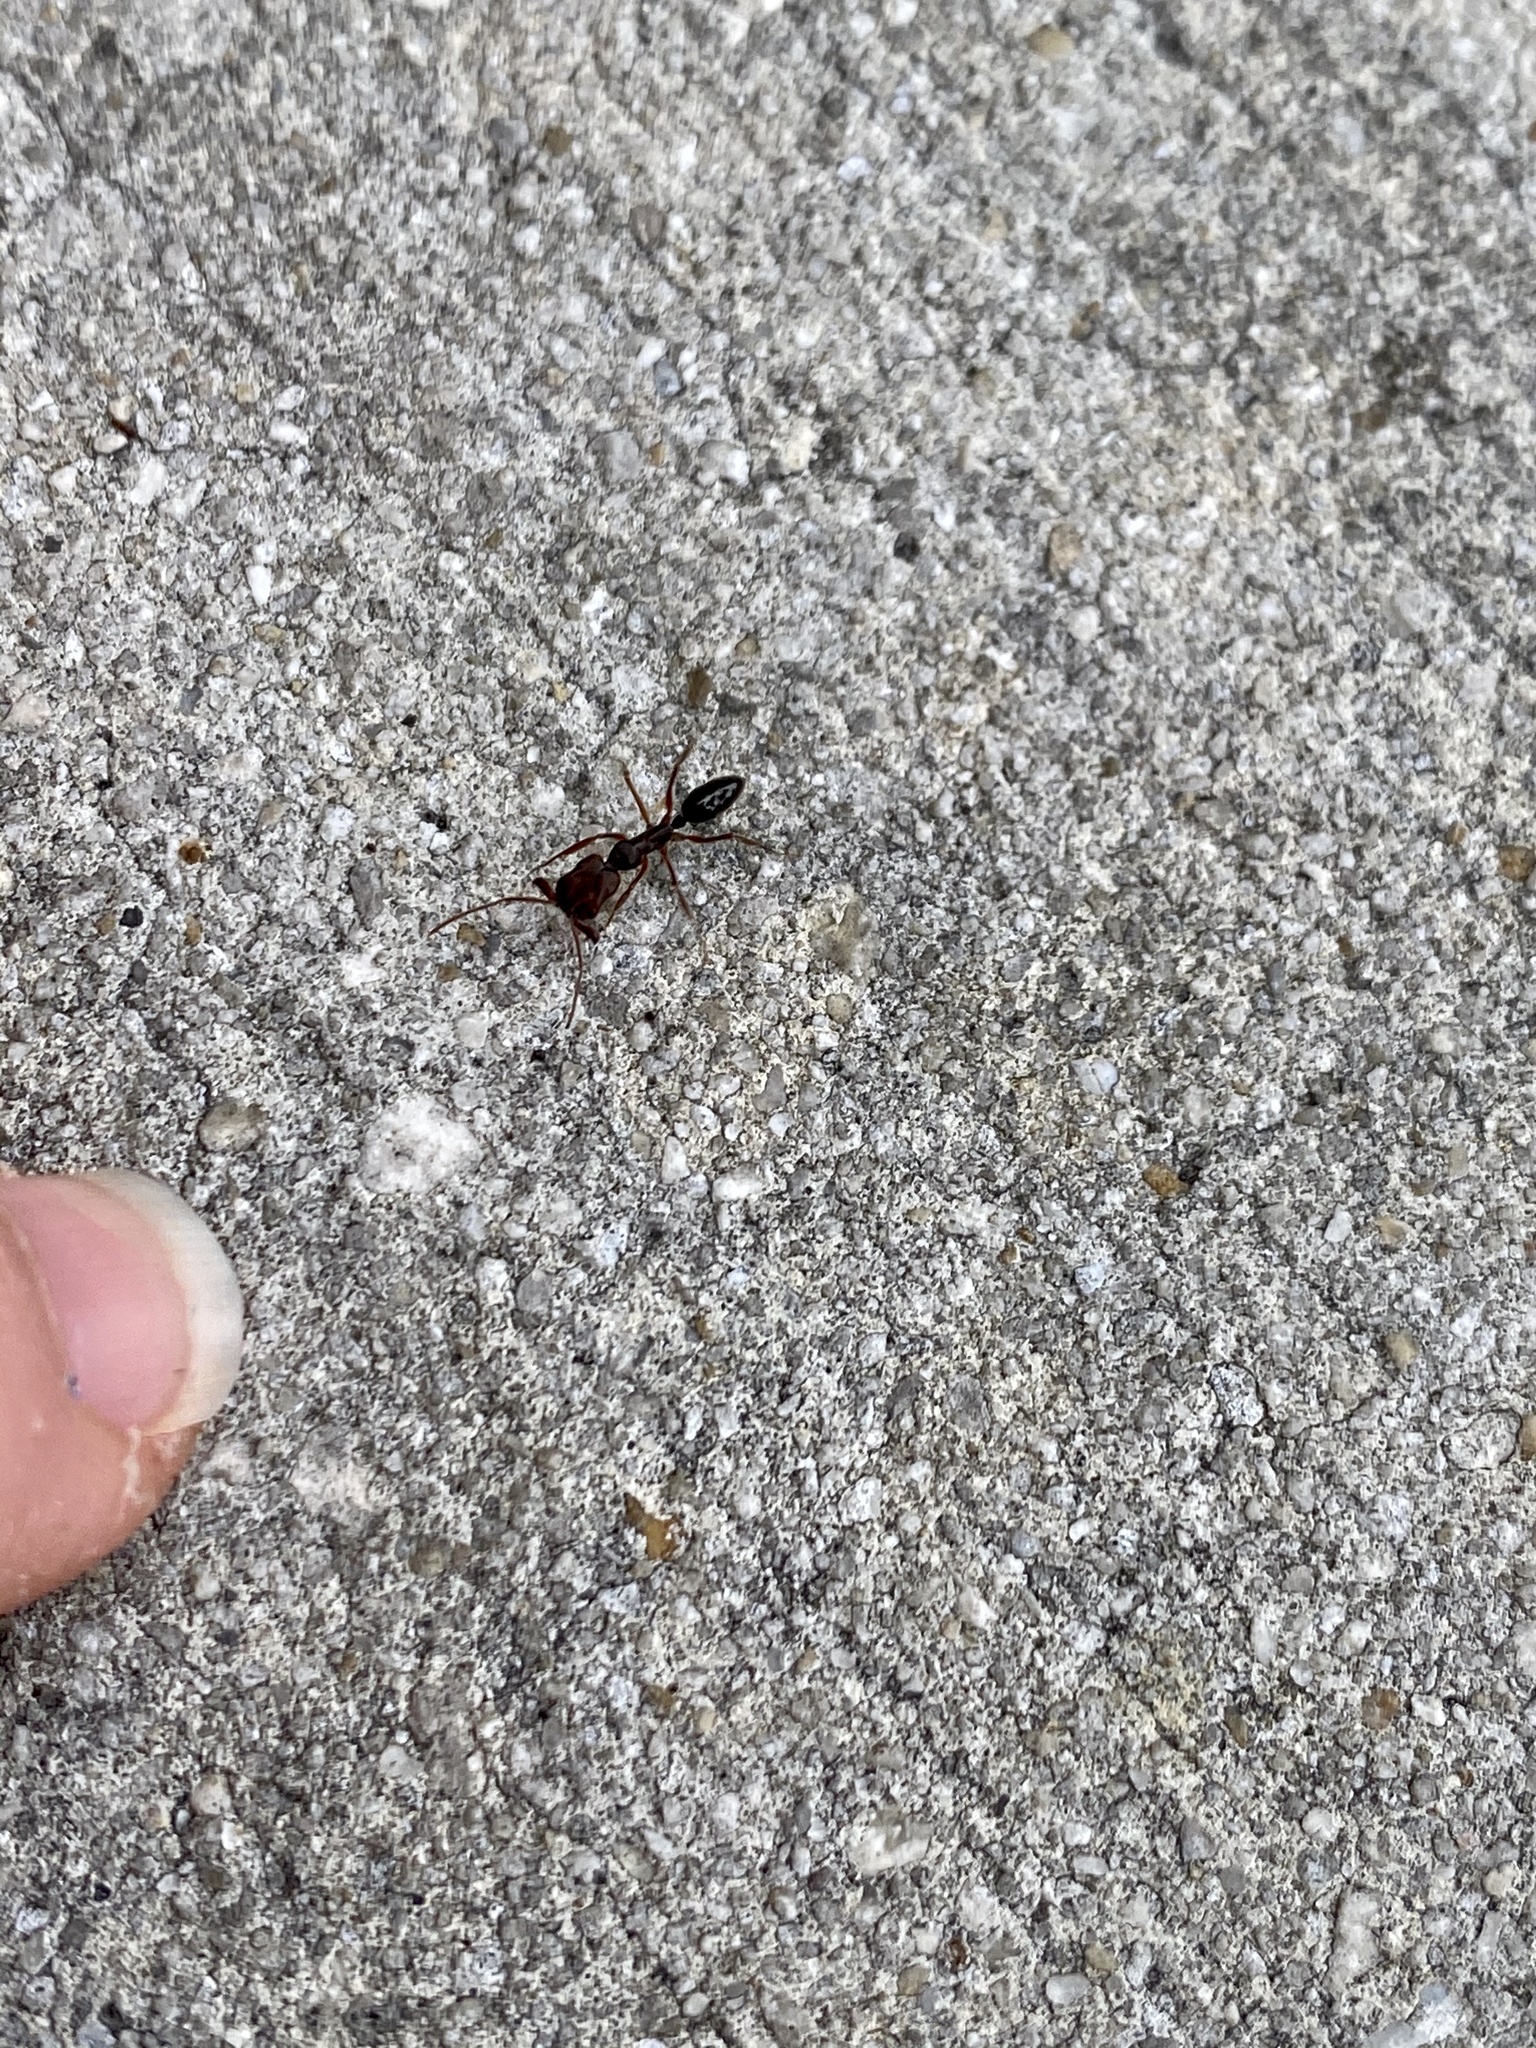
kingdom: Animalia
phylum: Arthropoda
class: Insecta
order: Hymenoptera
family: Formicidae
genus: Odontomachus
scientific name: Odontomachus ruginodis
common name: Trapjaw ant
